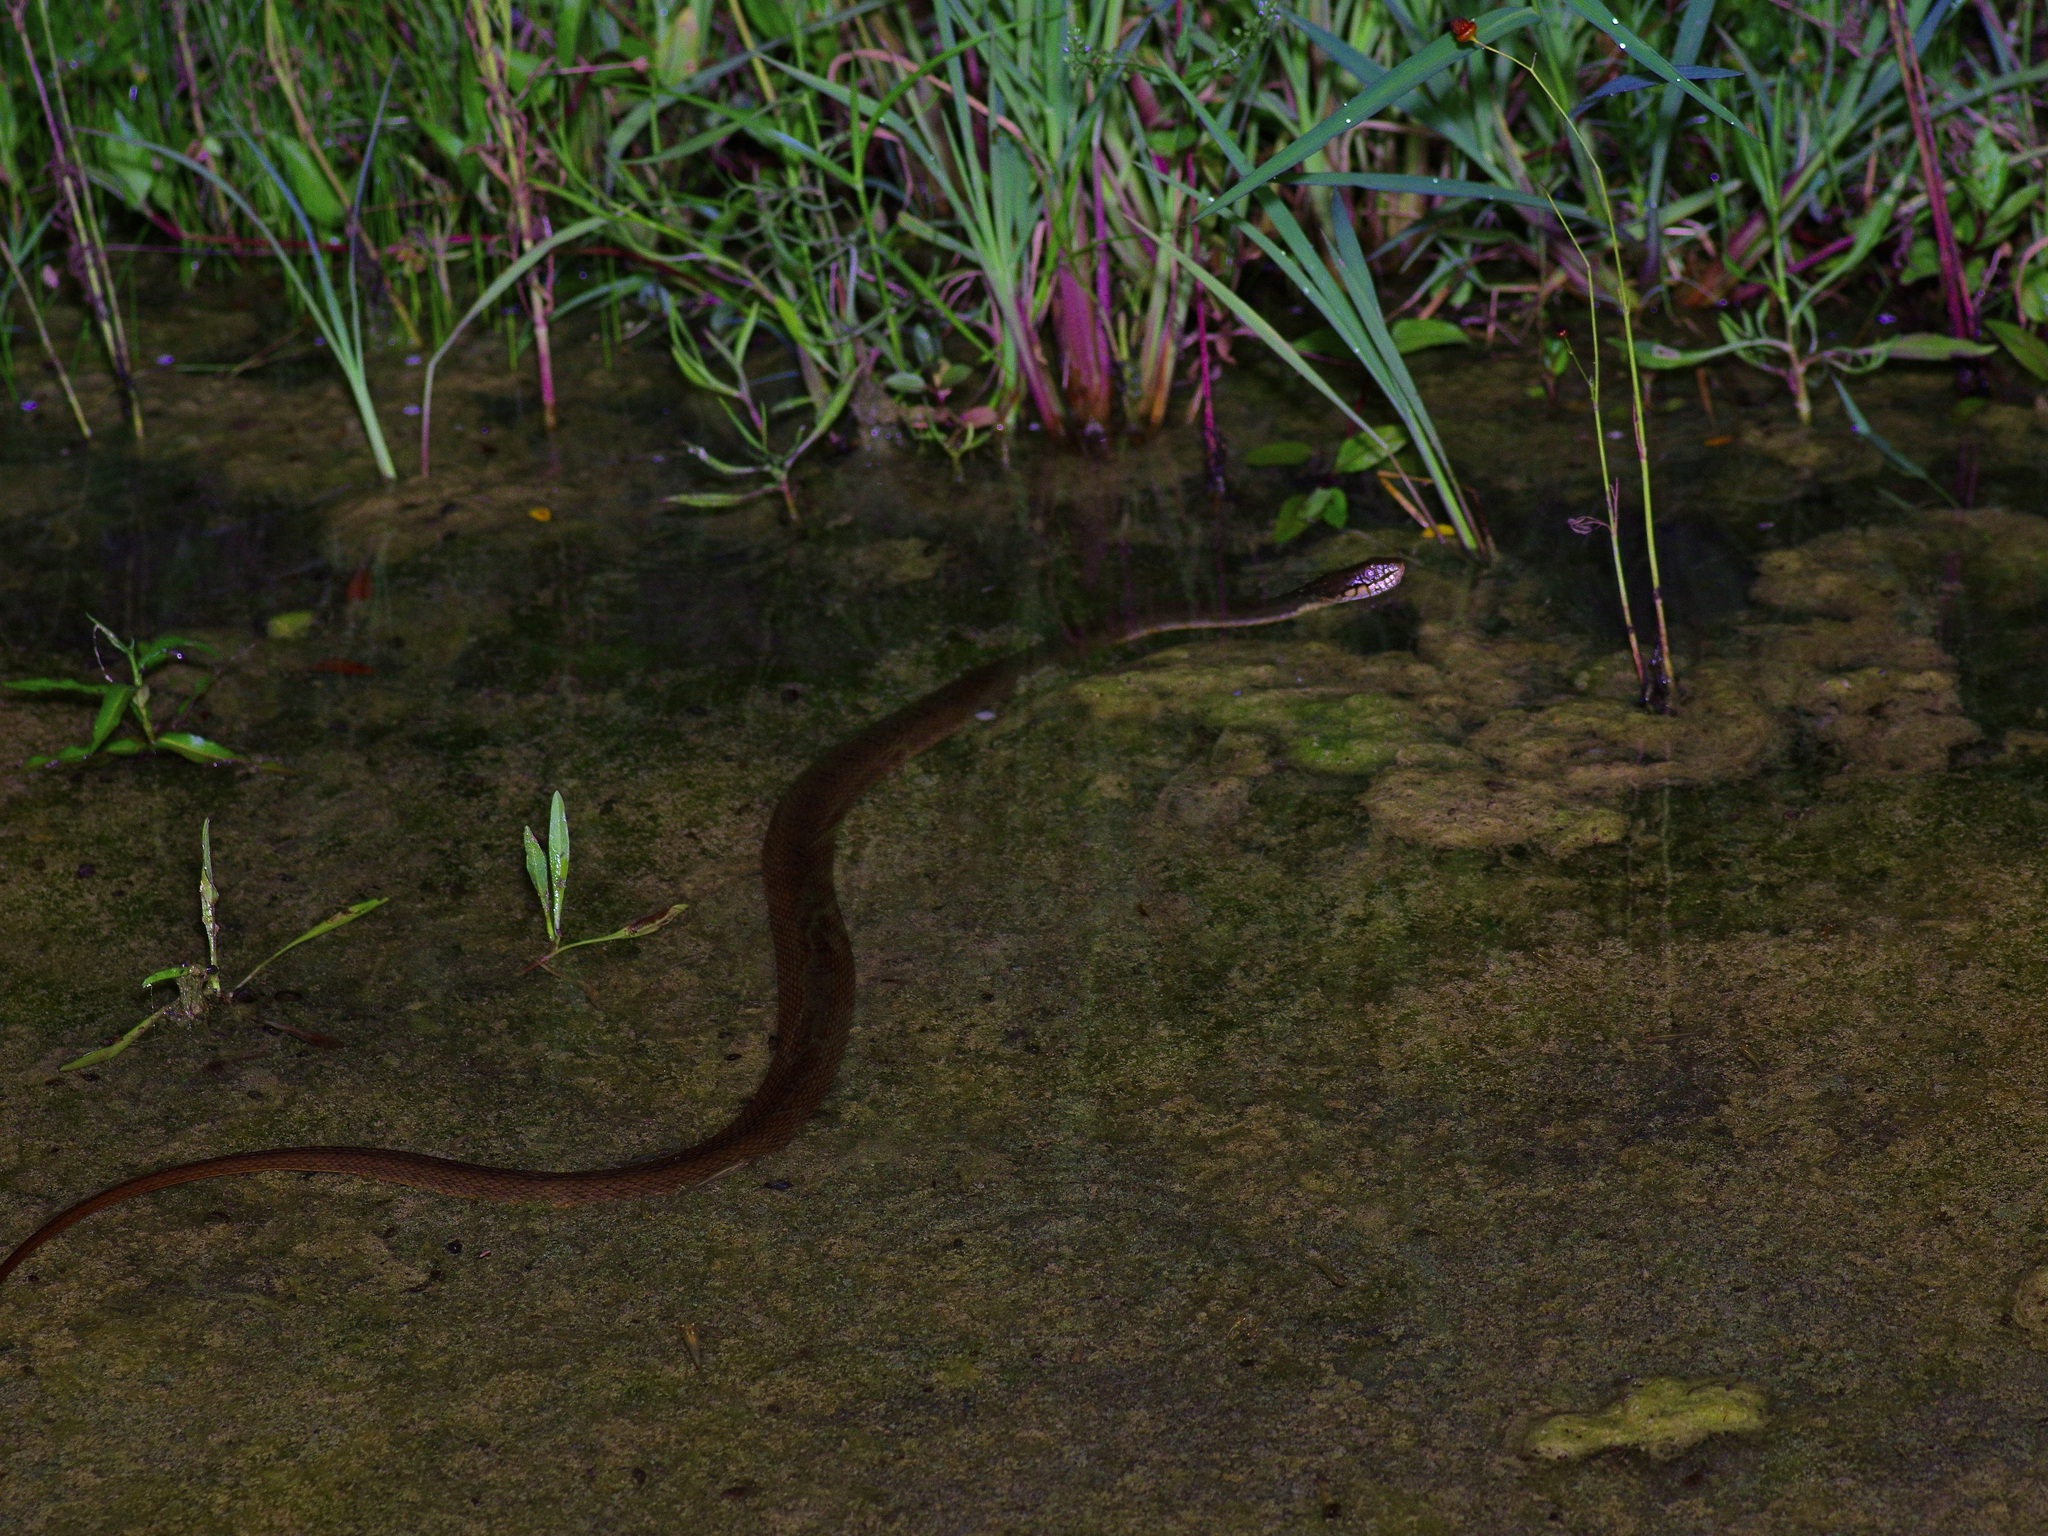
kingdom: Animalia
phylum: Chordata
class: Squamata
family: Colubridae
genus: Nerodia
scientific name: Nerodia erythrogaster
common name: Plainbelly water snake
